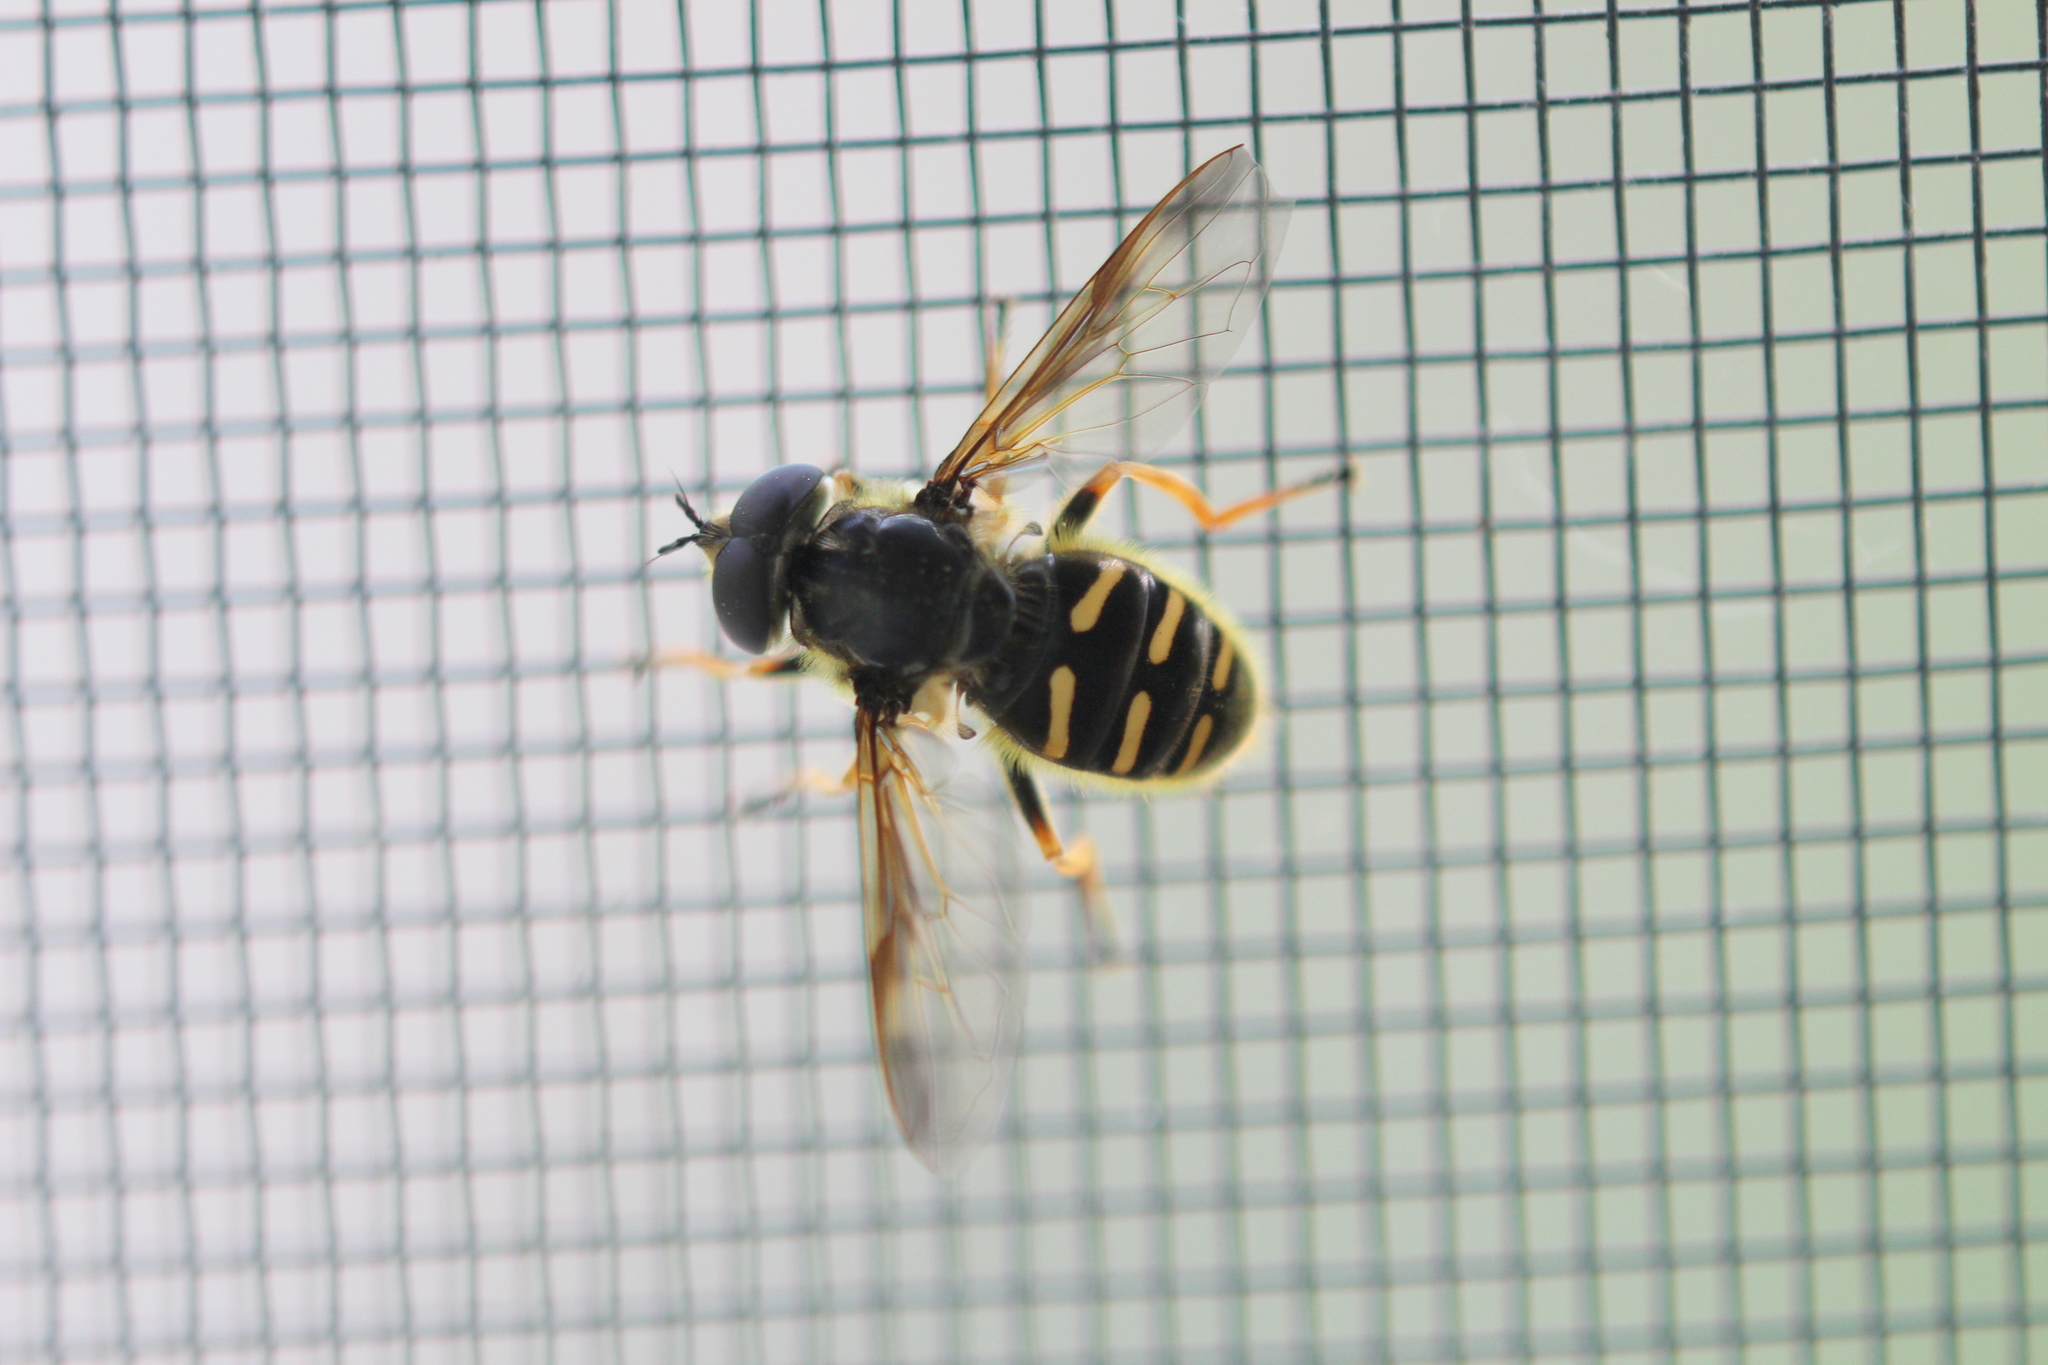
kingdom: Animalia
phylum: Arthropoda
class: Insecta
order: Diptera
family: Syrphidae
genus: Sericomyia
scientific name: Sericomyia chrysotoxoides
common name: Oblique-banded pond fly
